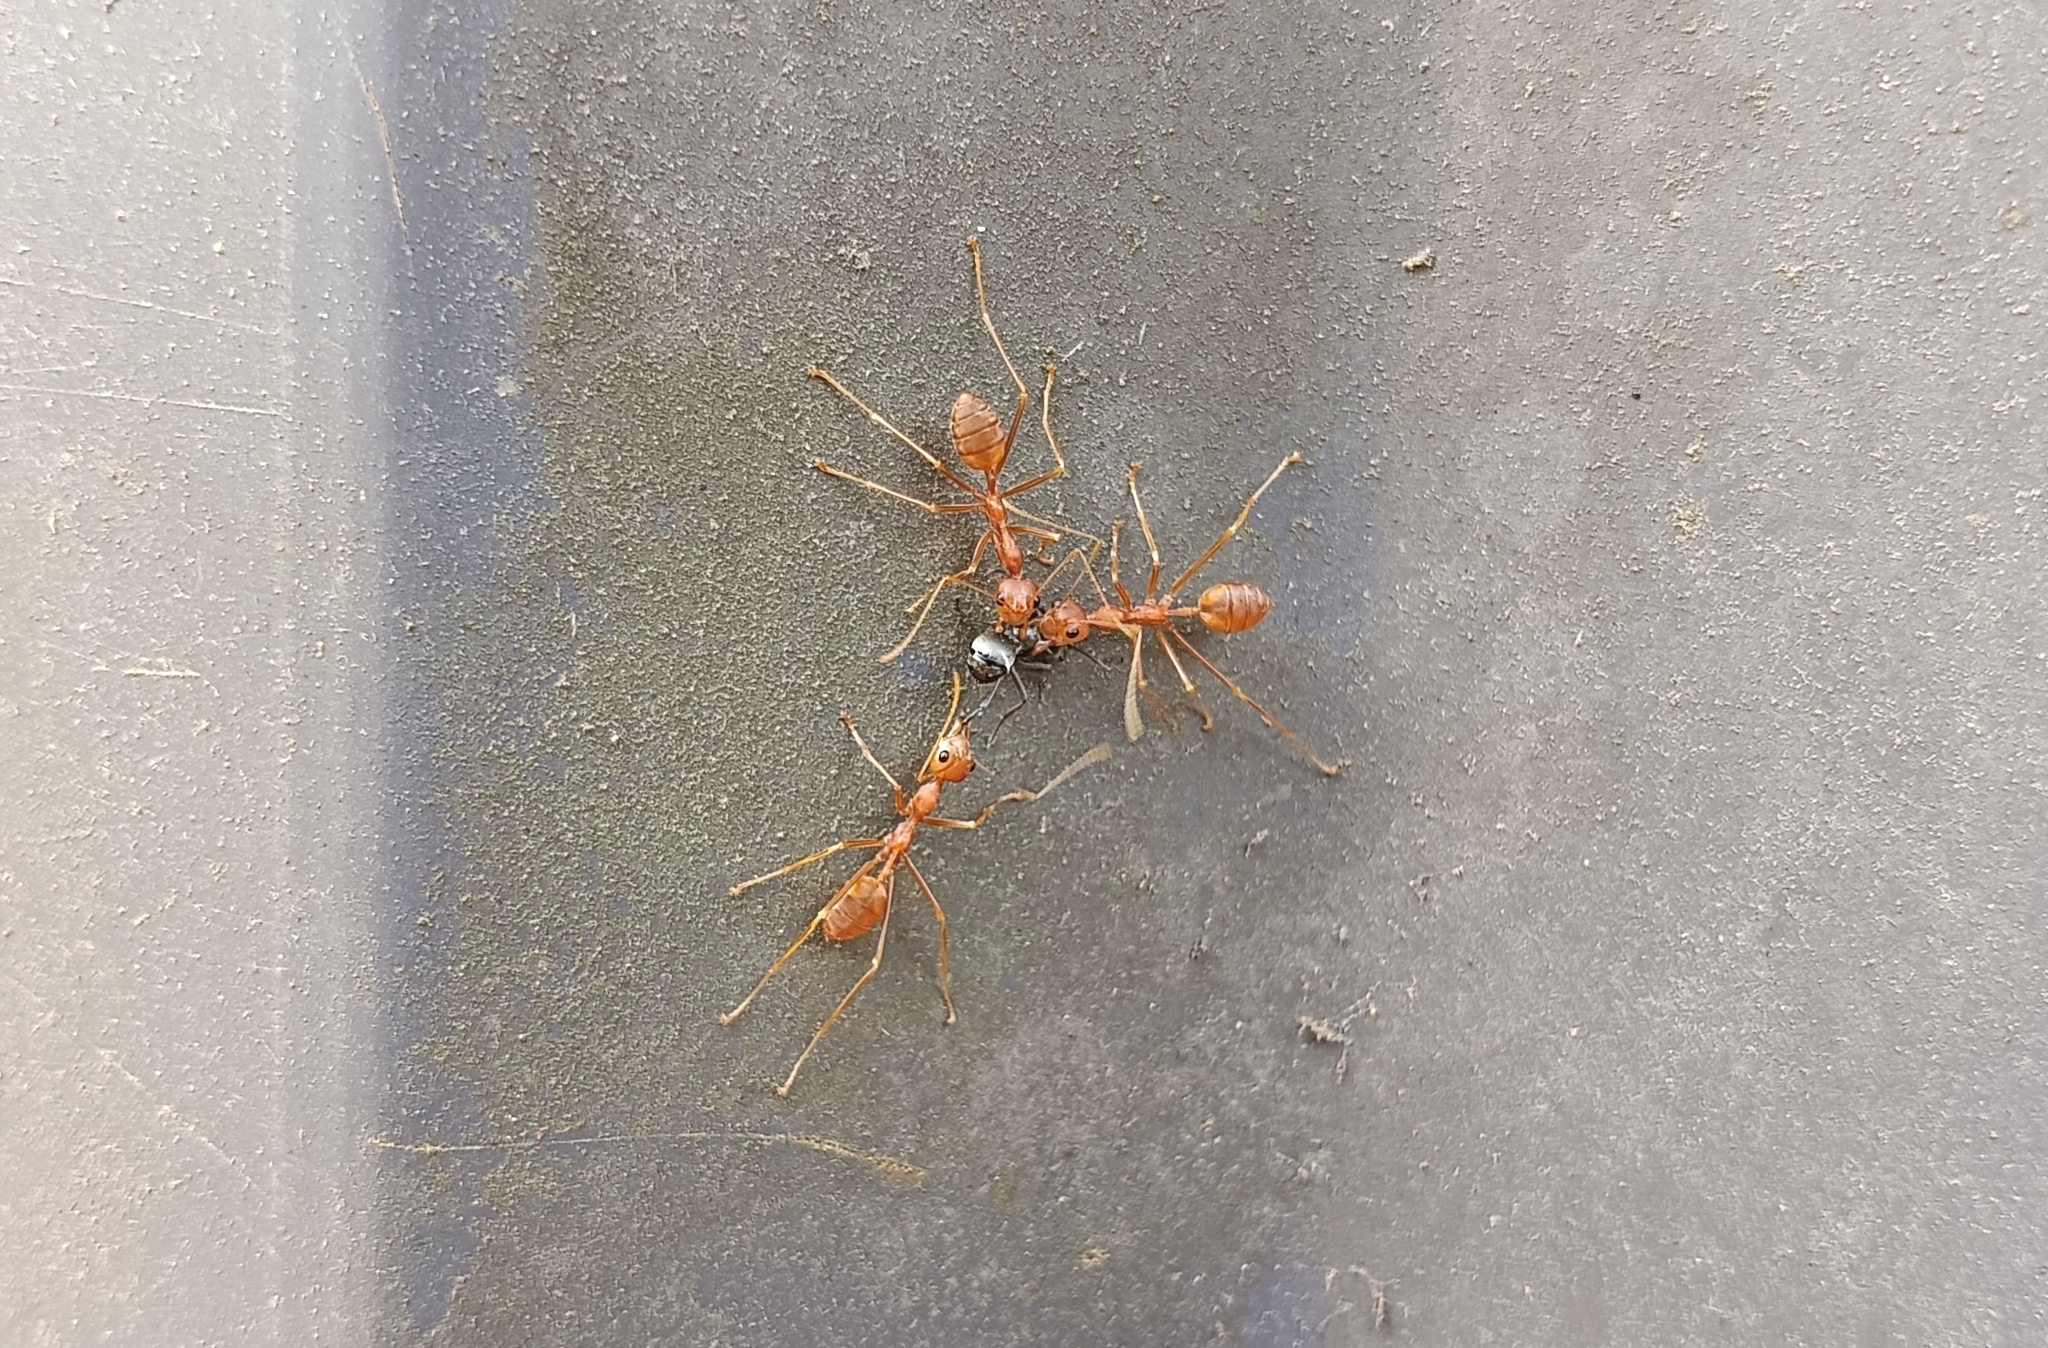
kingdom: Animalia
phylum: Arthropoda
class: Insecta
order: Hymenoptera
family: Formicidae
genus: Oecophylla
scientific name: Oecophylla smaragdina
